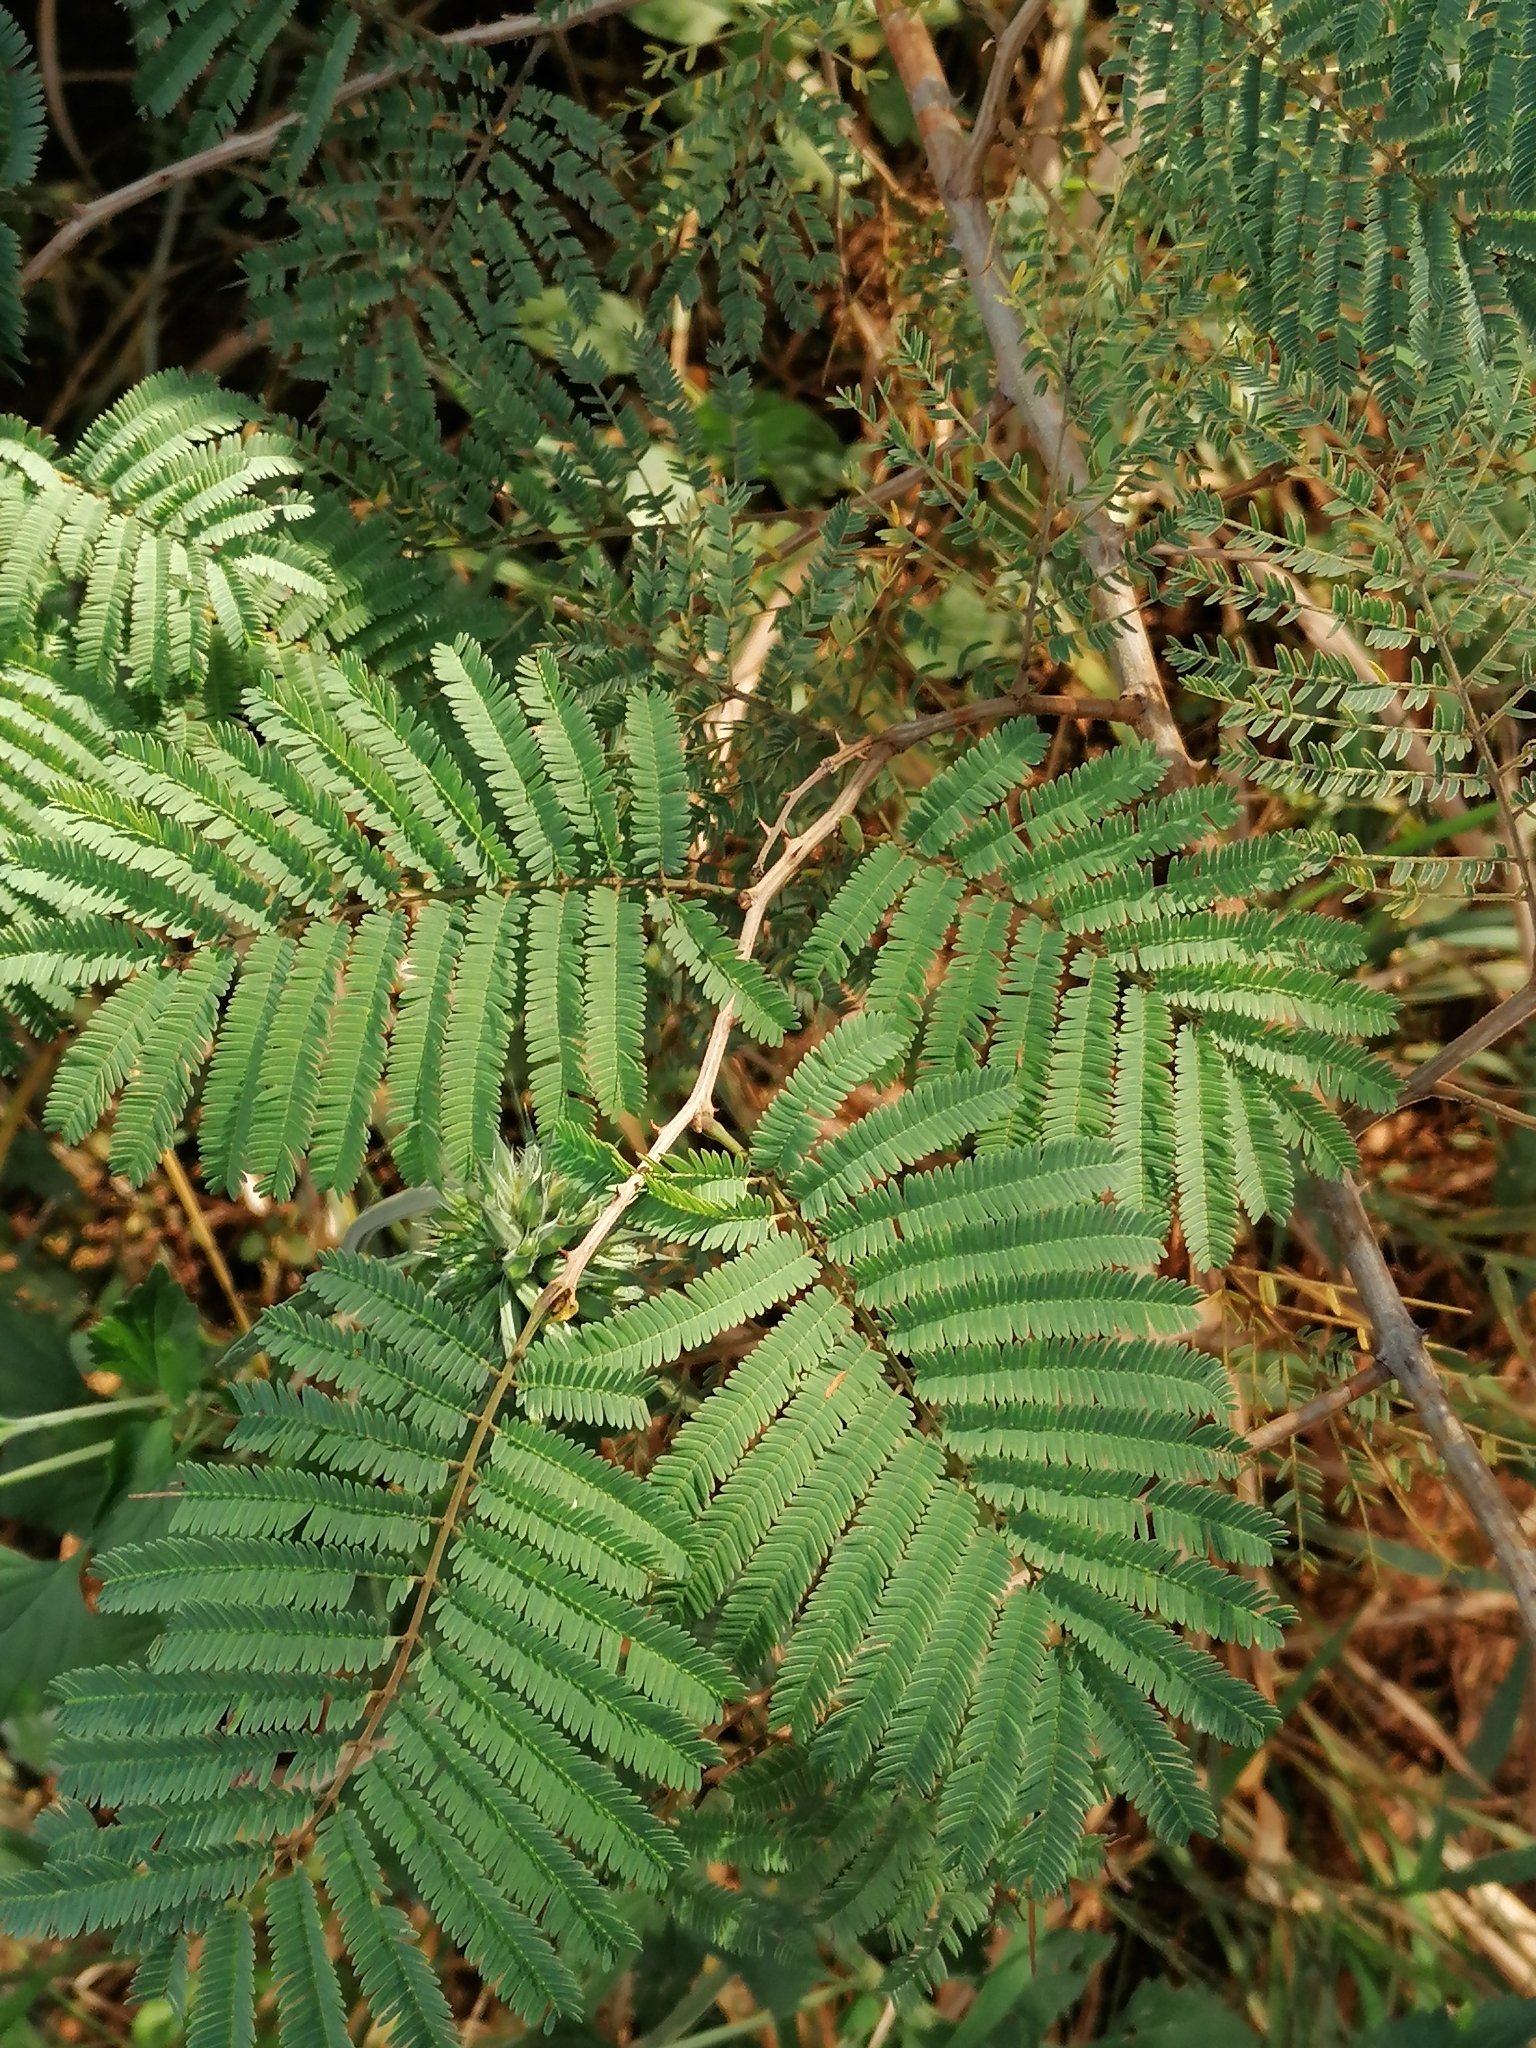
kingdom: Plantae
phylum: Tracheophyta
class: Magnoliopsida
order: Fabales
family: Fabaceae
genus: Senegalia
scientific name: Senegalia ataxacantha
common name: Flame acacia
